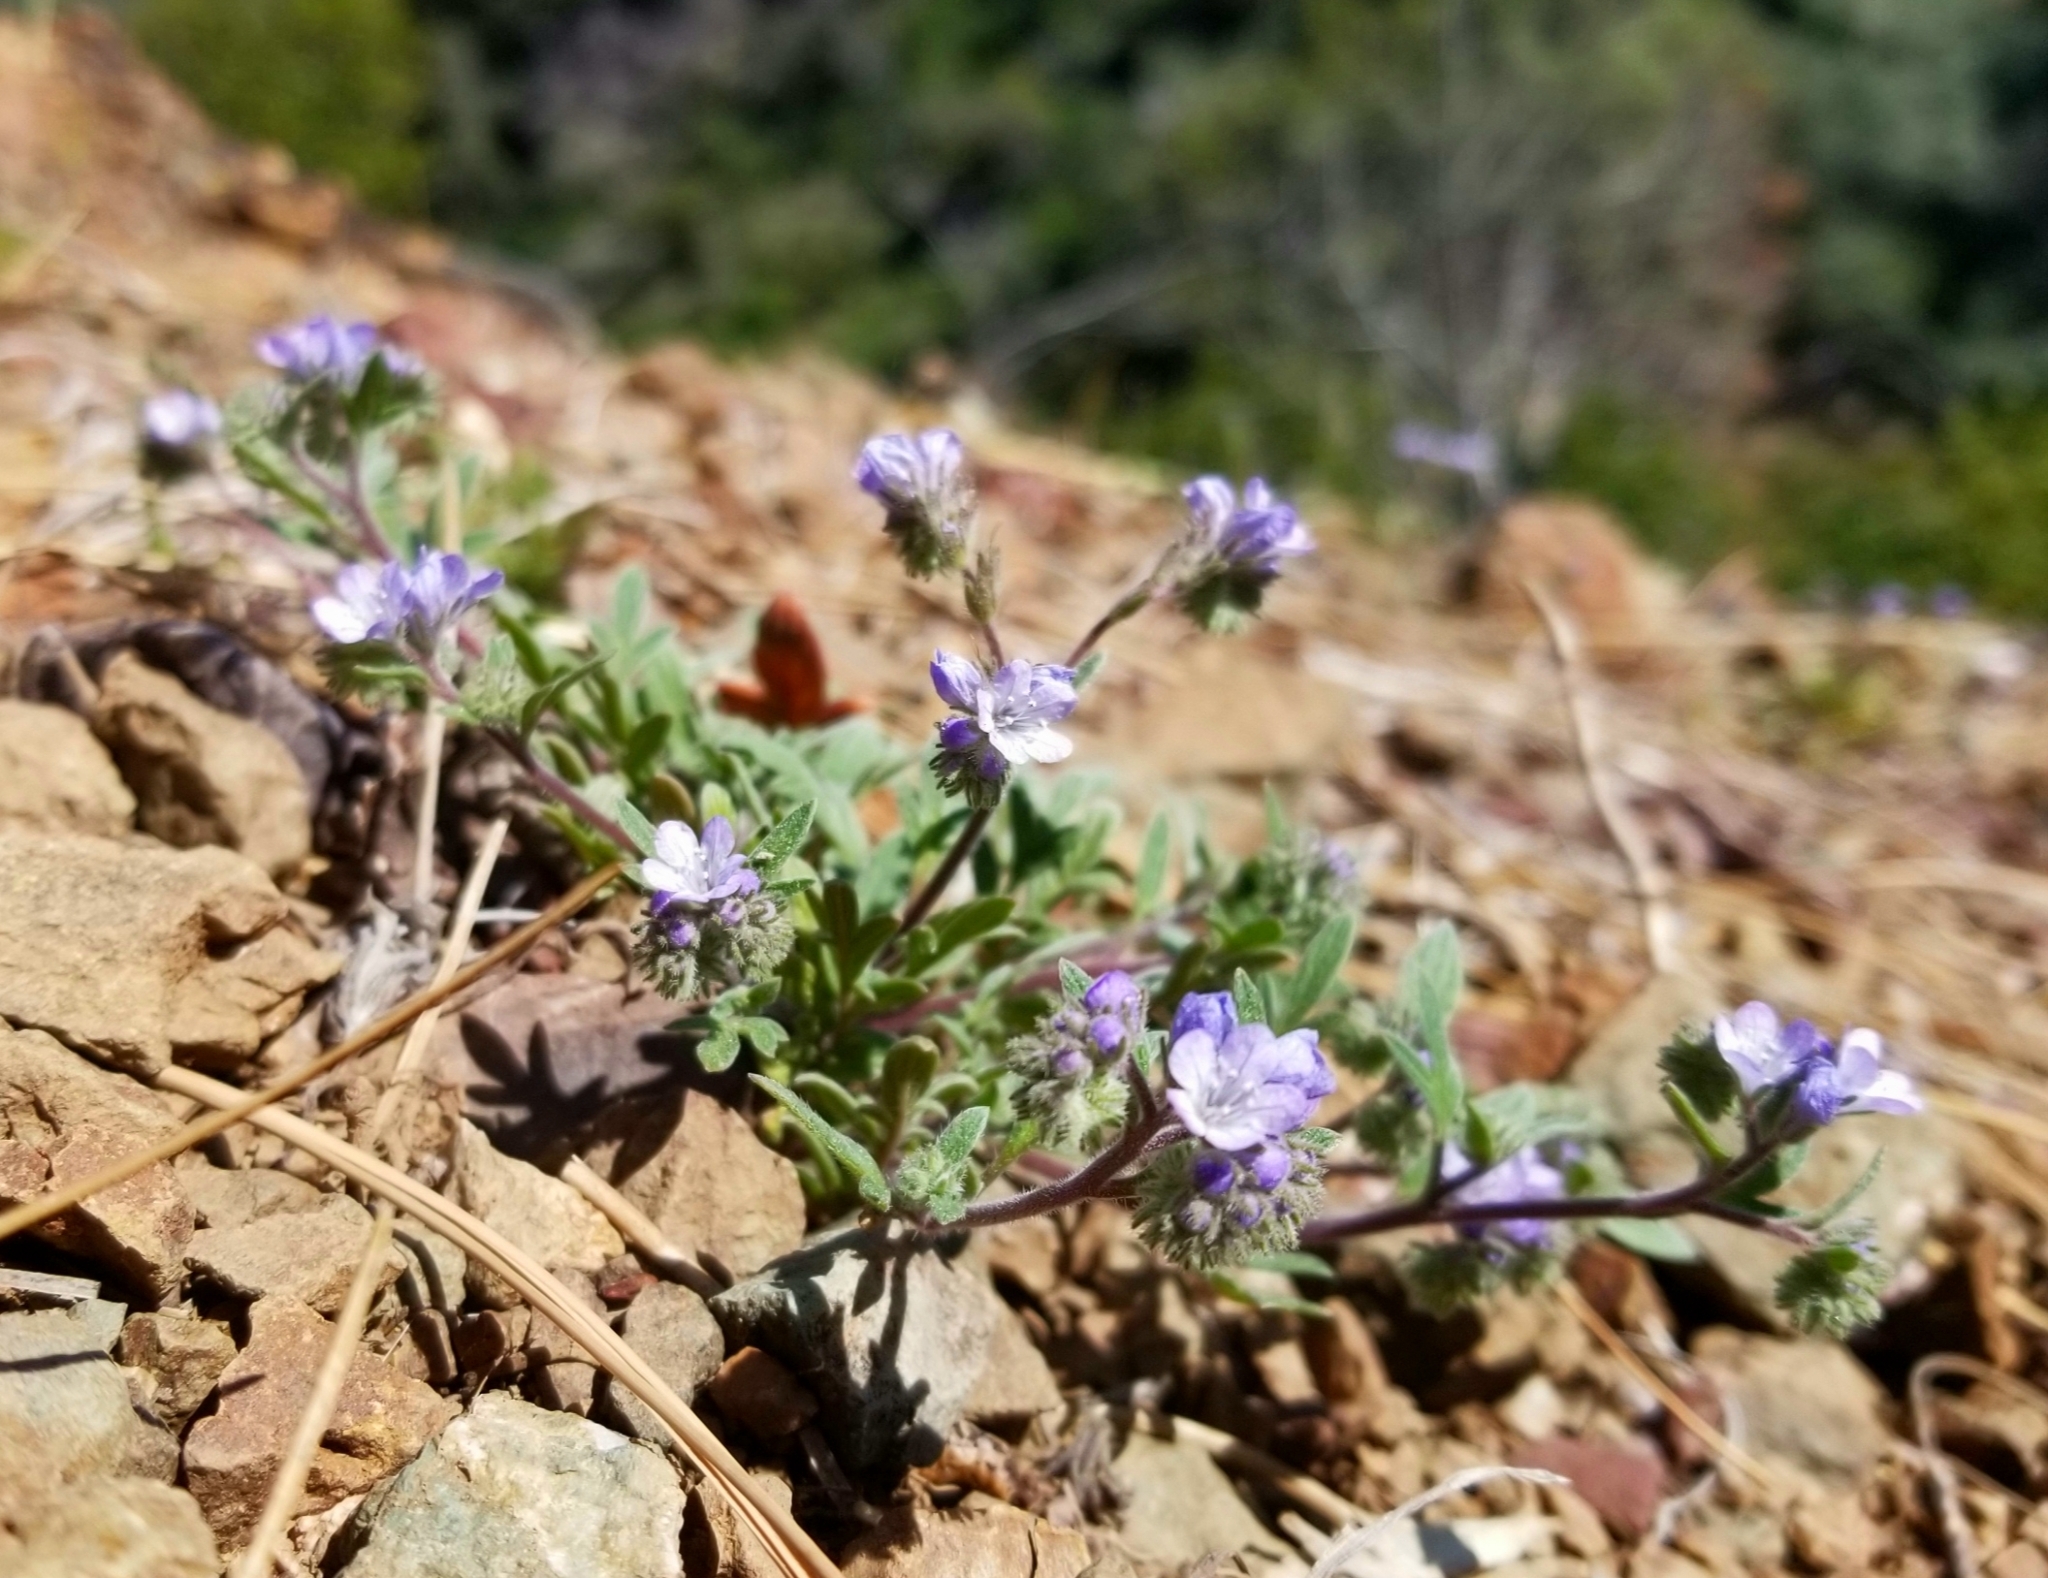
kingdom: Plantae
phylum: Tracheophyta
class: Magnoliopsida
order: Boraginales
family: Hydrophyllaceae
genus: Phacelia
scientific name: Phacelia breweri
